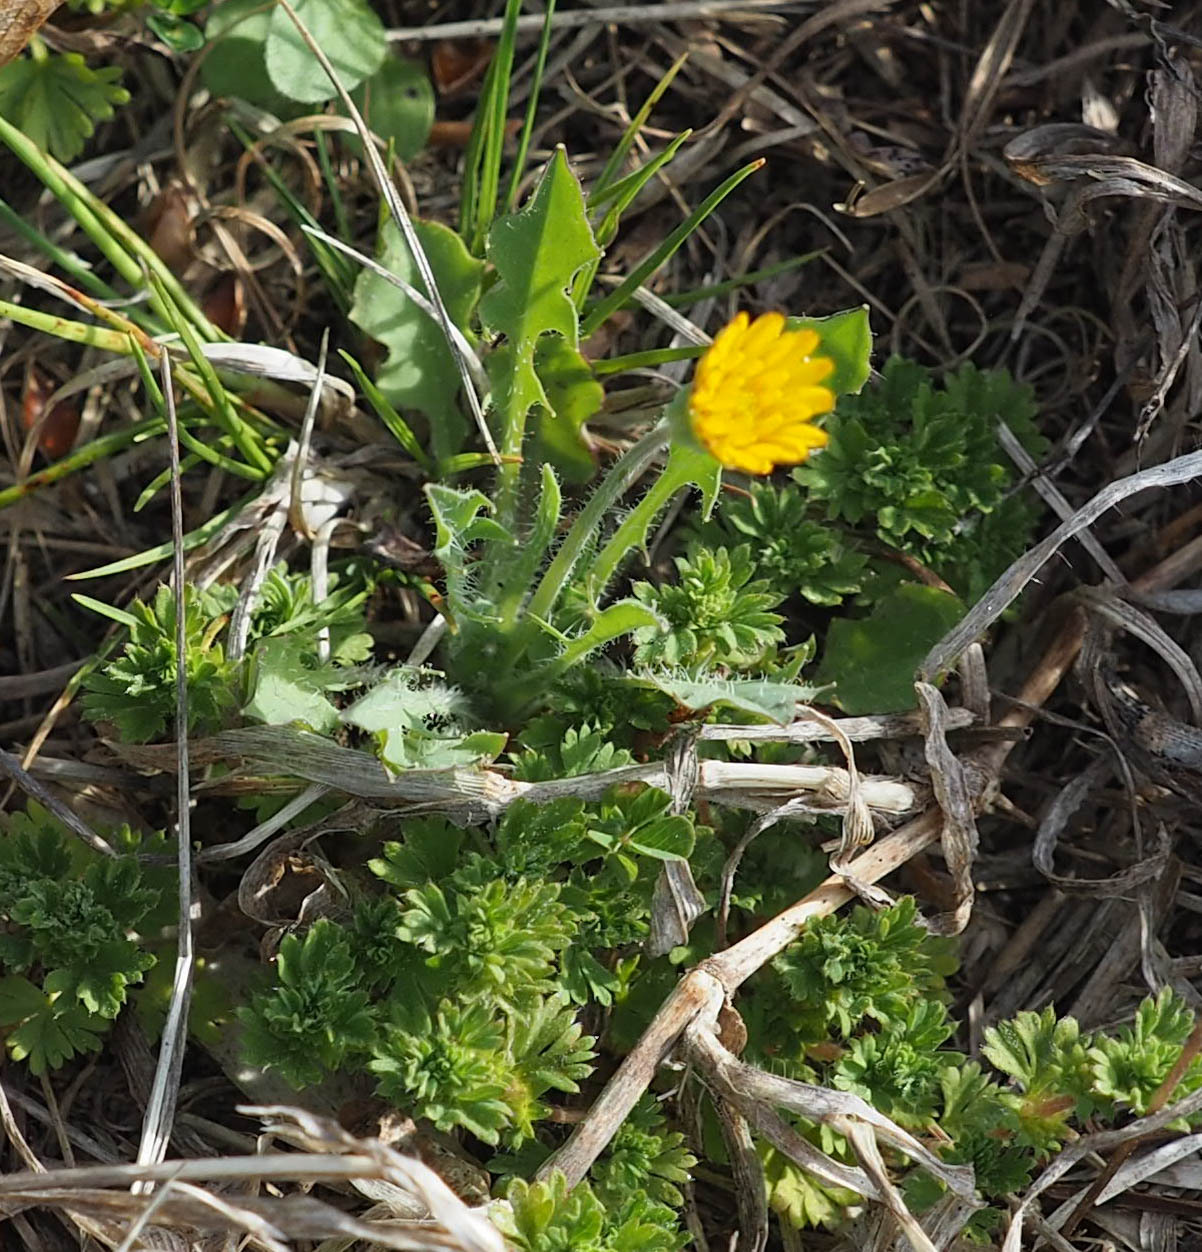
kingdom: Plantae
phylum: Tracheophyta
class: Magnoliopsida
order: Asterales
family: Asteraceae
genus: Krigia
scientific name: Krigia virginica
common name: Virginia dwarf-dandelion
